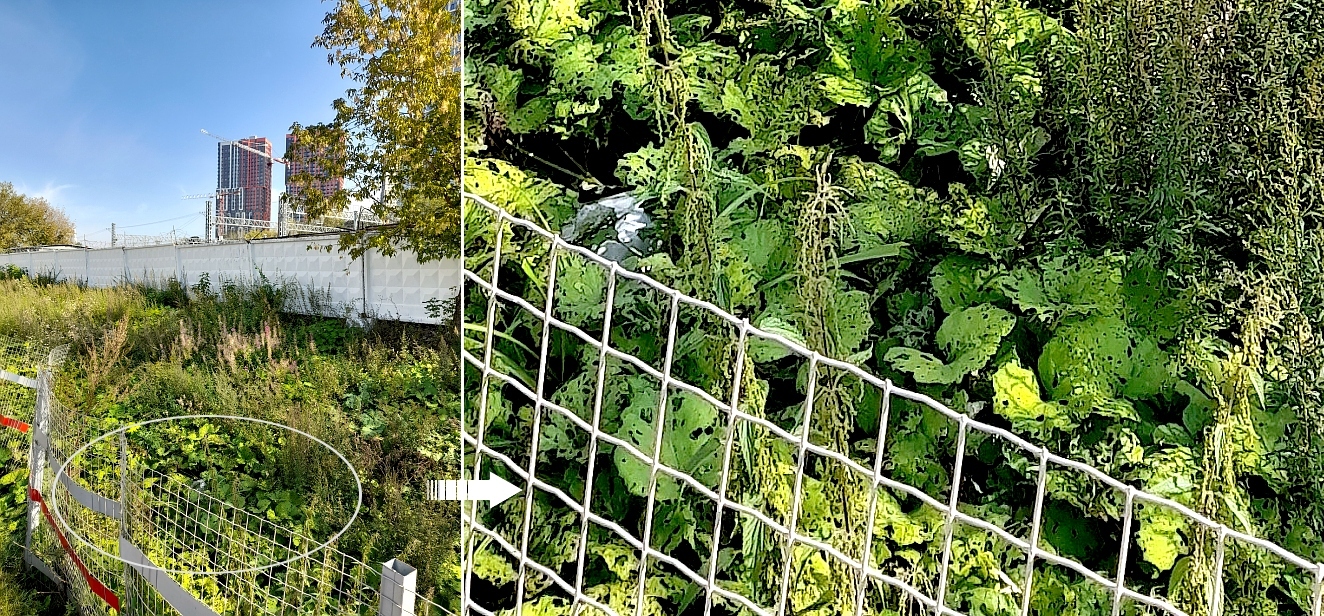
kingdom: Plantae
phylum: Tracheophyta
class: Magnoliopsida
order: Asterales
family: Asteraceae
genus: Tussilago
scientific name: Tussilago farfara
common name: Coltsfoot
